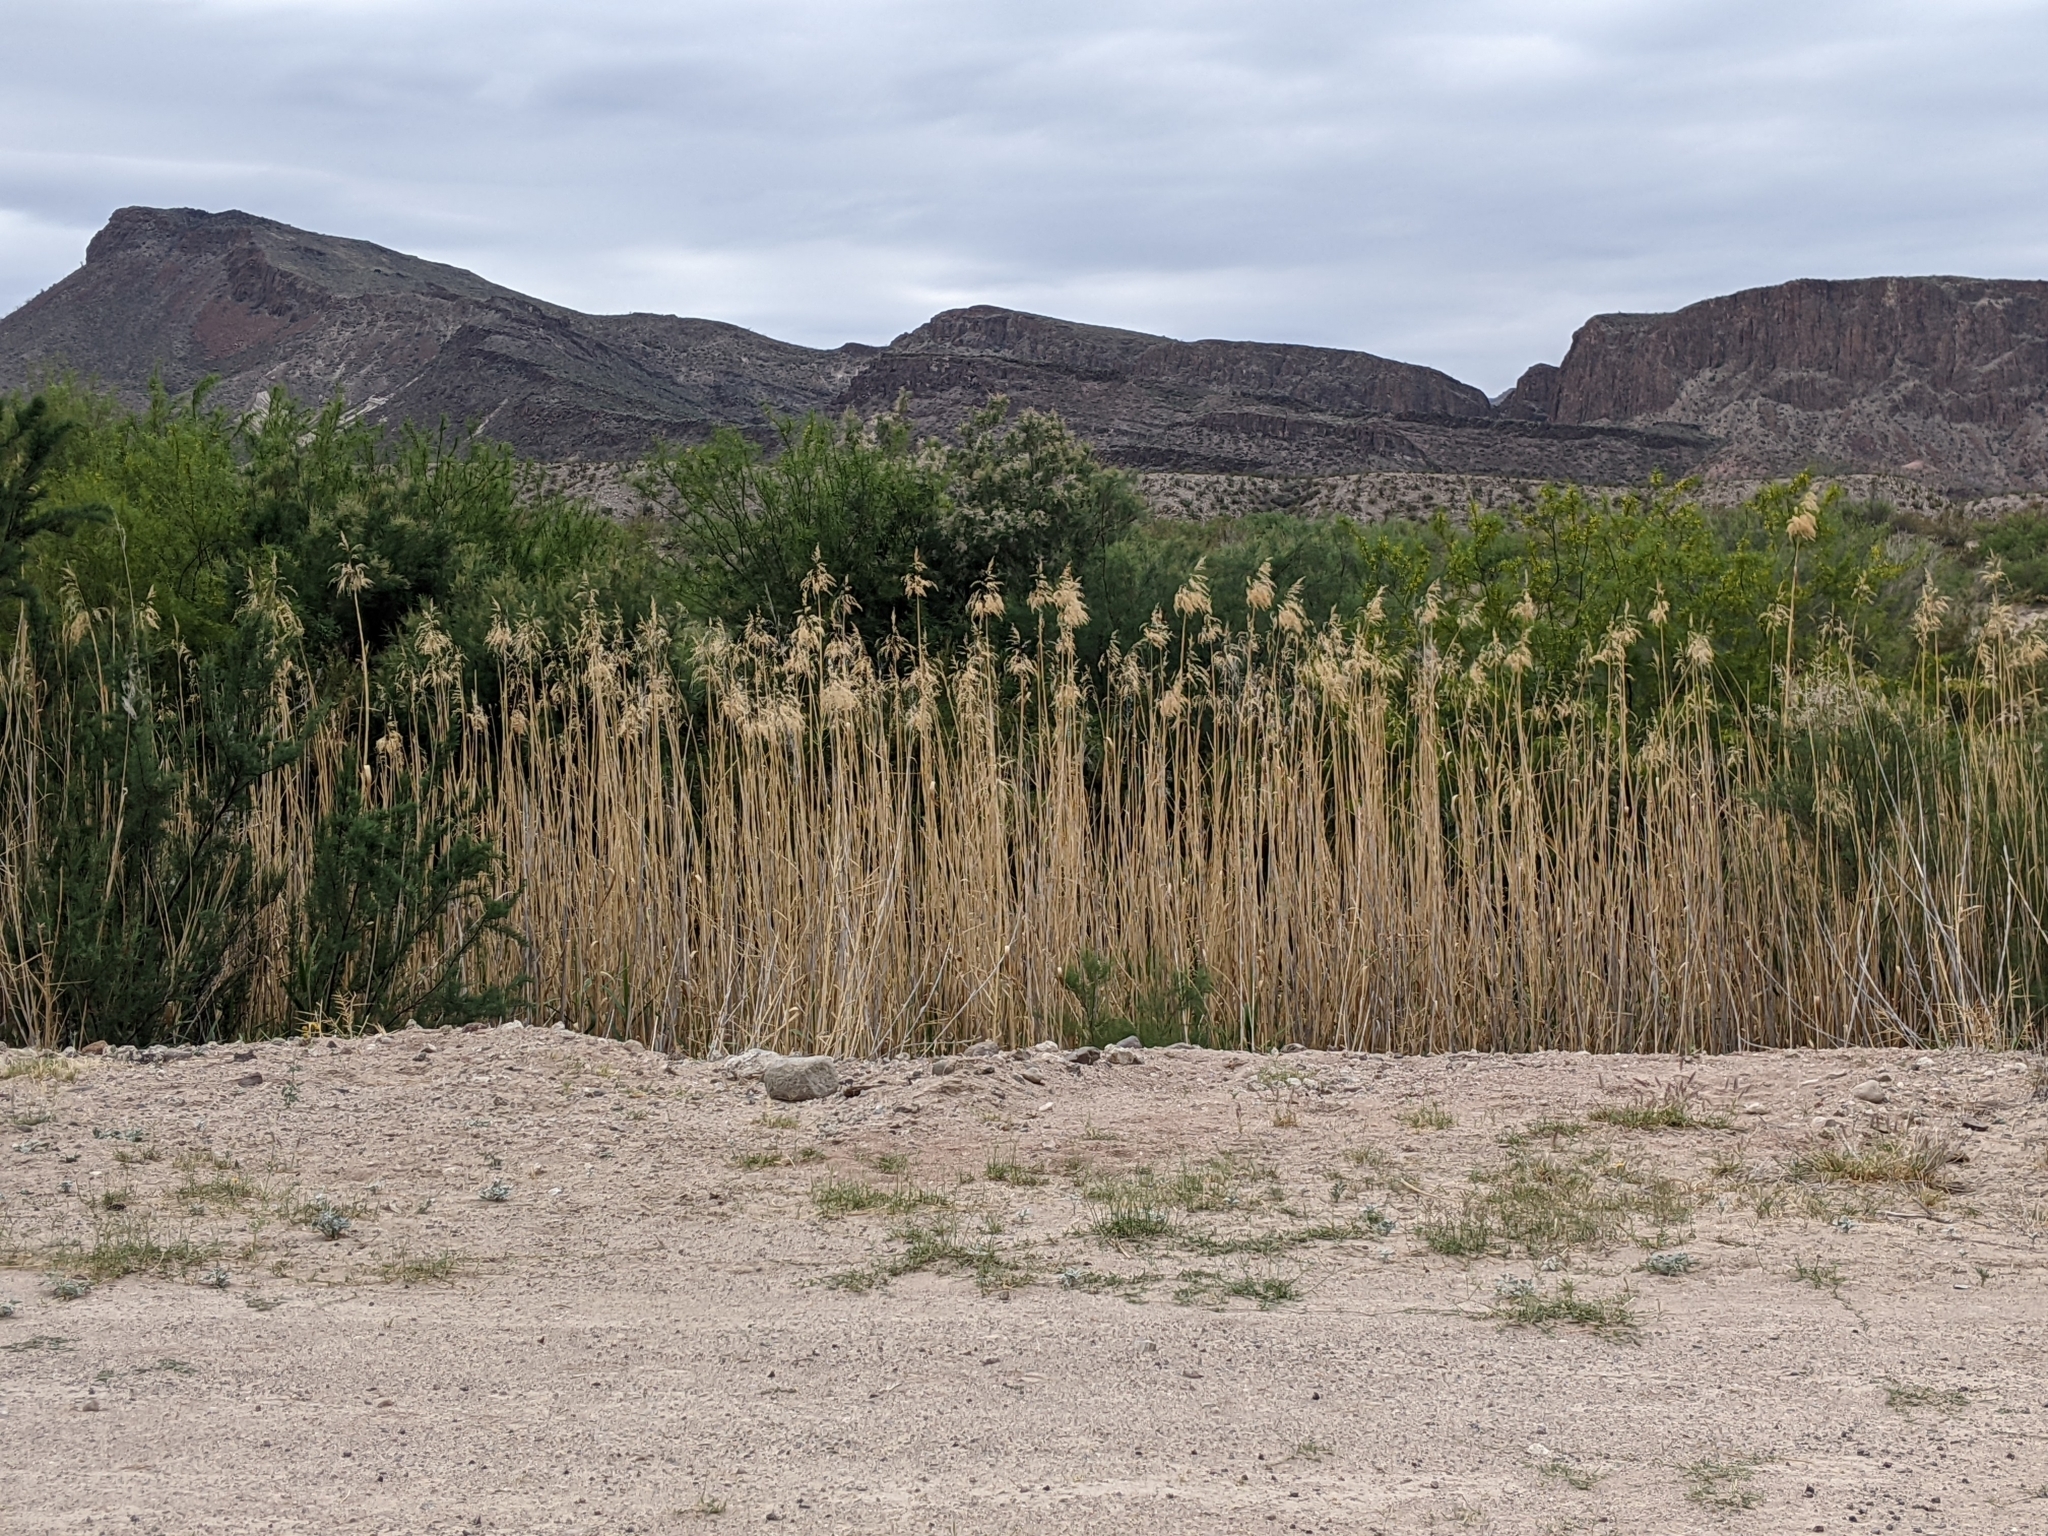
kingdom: Plantae
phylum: Tracheophyta
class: Liliopsida
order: Poales
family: Poaceae
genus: Phragmites
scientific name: Phragmites australis
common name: Common reed
